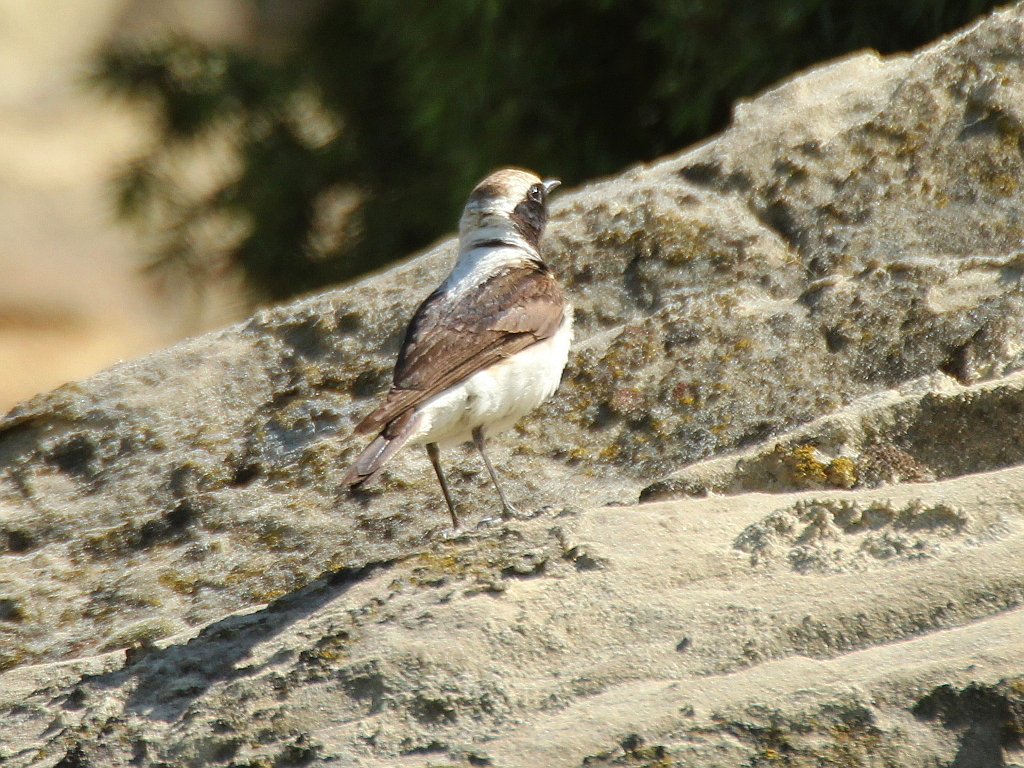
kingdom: Animalia
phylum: Chordata
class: Aves
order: Passeriformes
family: Muscicapidae
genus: Oenanthe
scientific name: Oenanthe hispanica
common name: Black-eared wheatear
